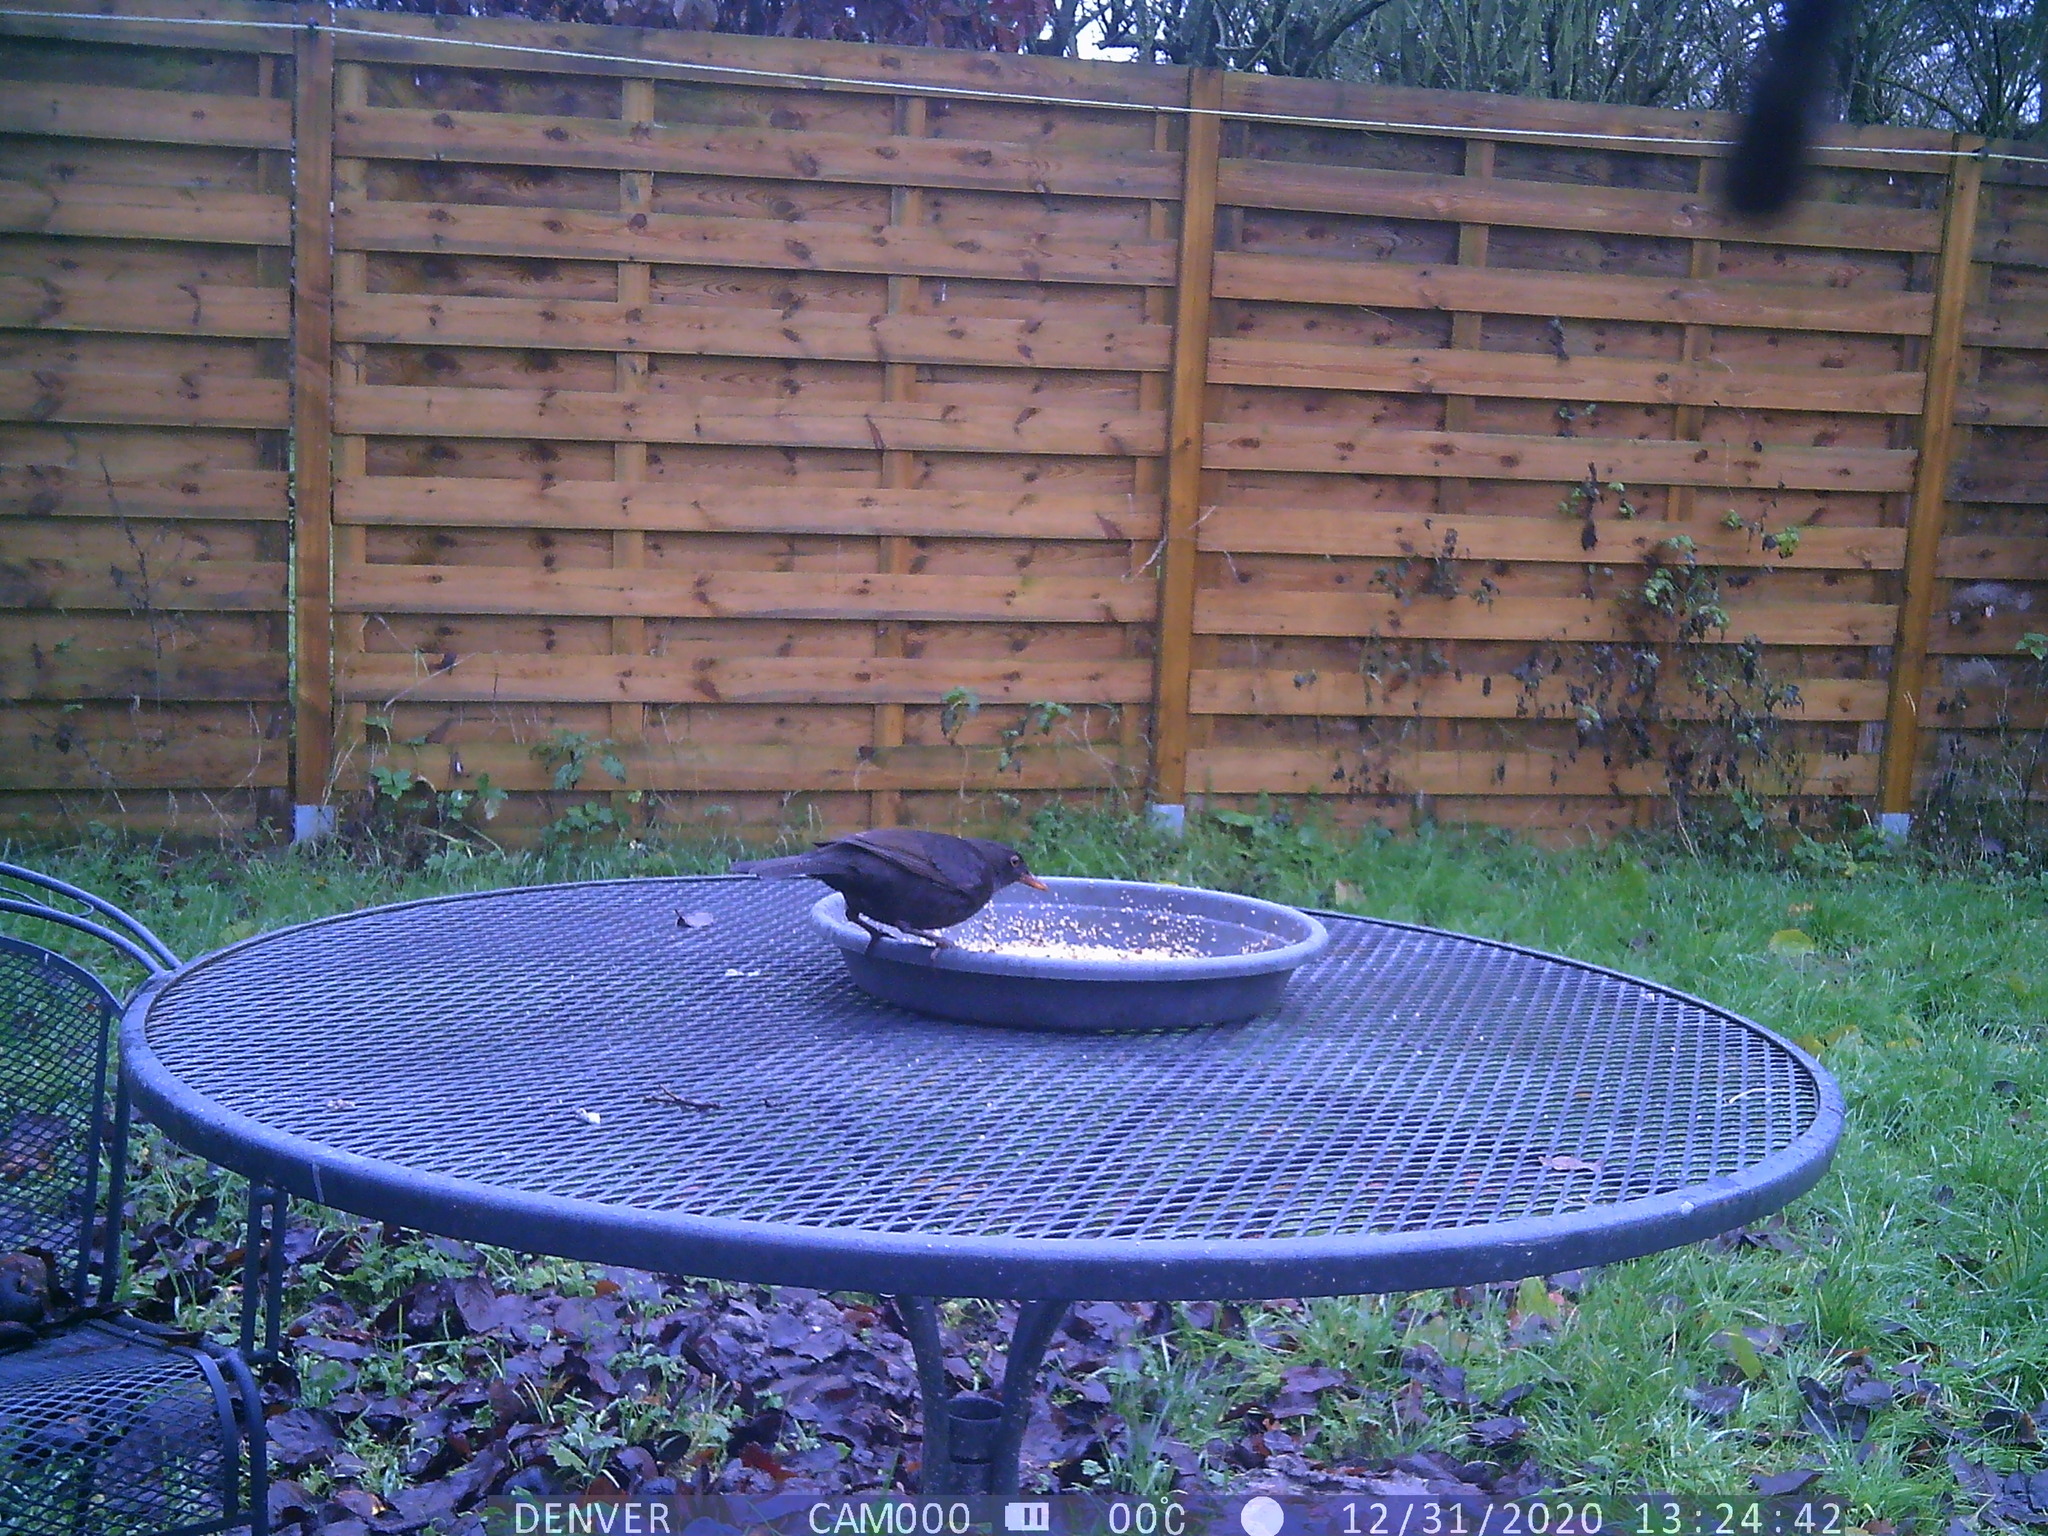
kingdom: Animalia
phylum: Chordata
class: Aves
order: Passeriformes
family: Turdidae
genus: Turdus
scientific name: Turdus merula
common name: Common blackbird
